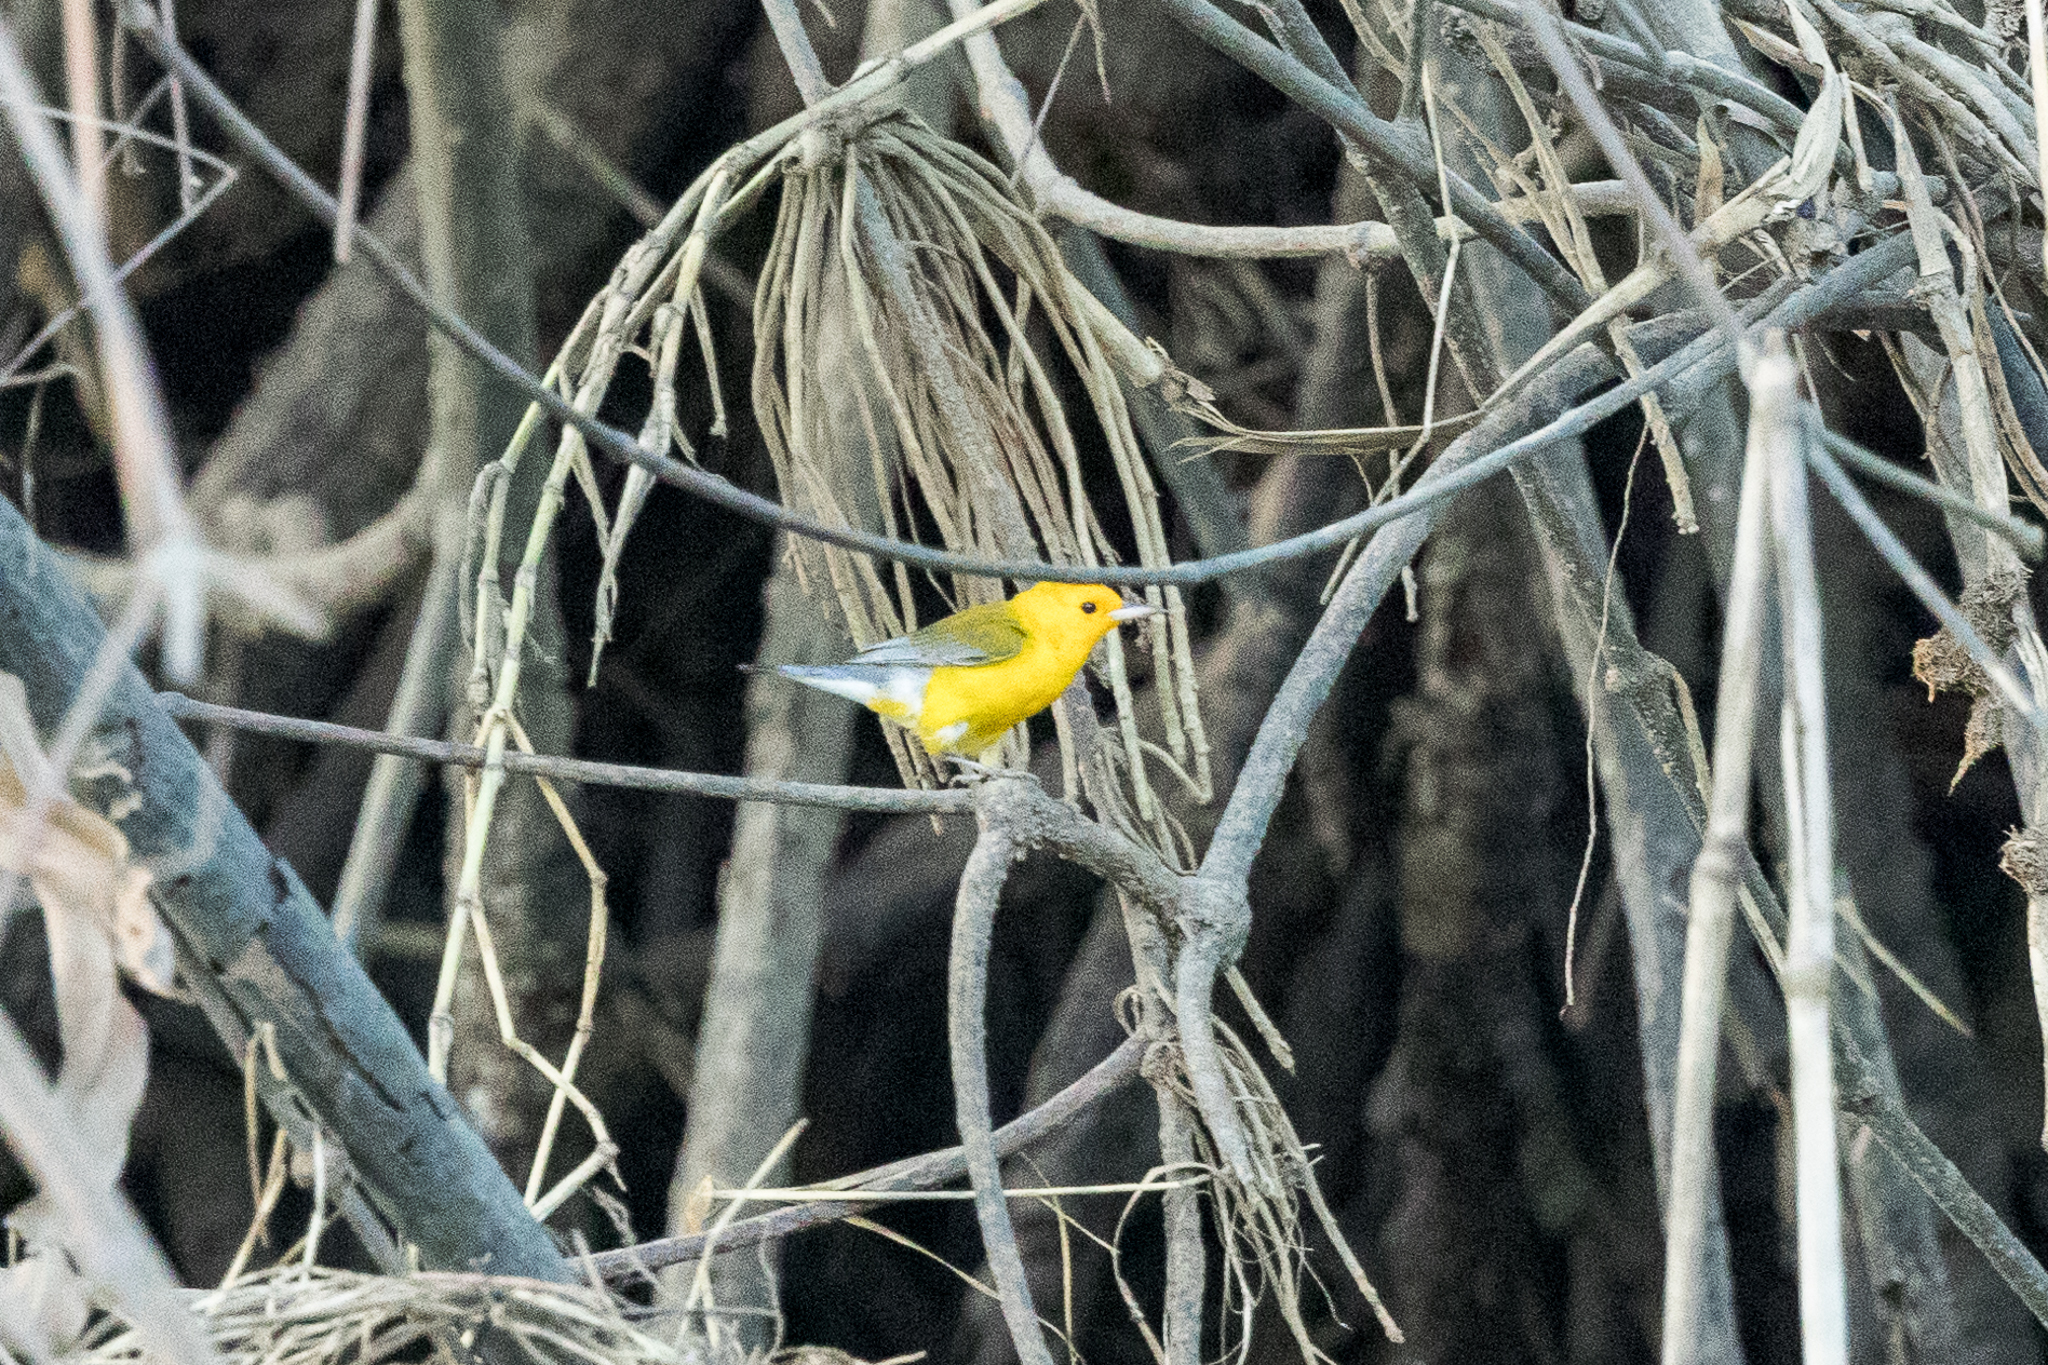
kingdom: Animalia
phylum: Chordata
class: Aves
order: Passeriformes
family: Parulidae
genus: Protonotaria
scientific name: Protonotaria citrea
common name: Prothonotary warbler
